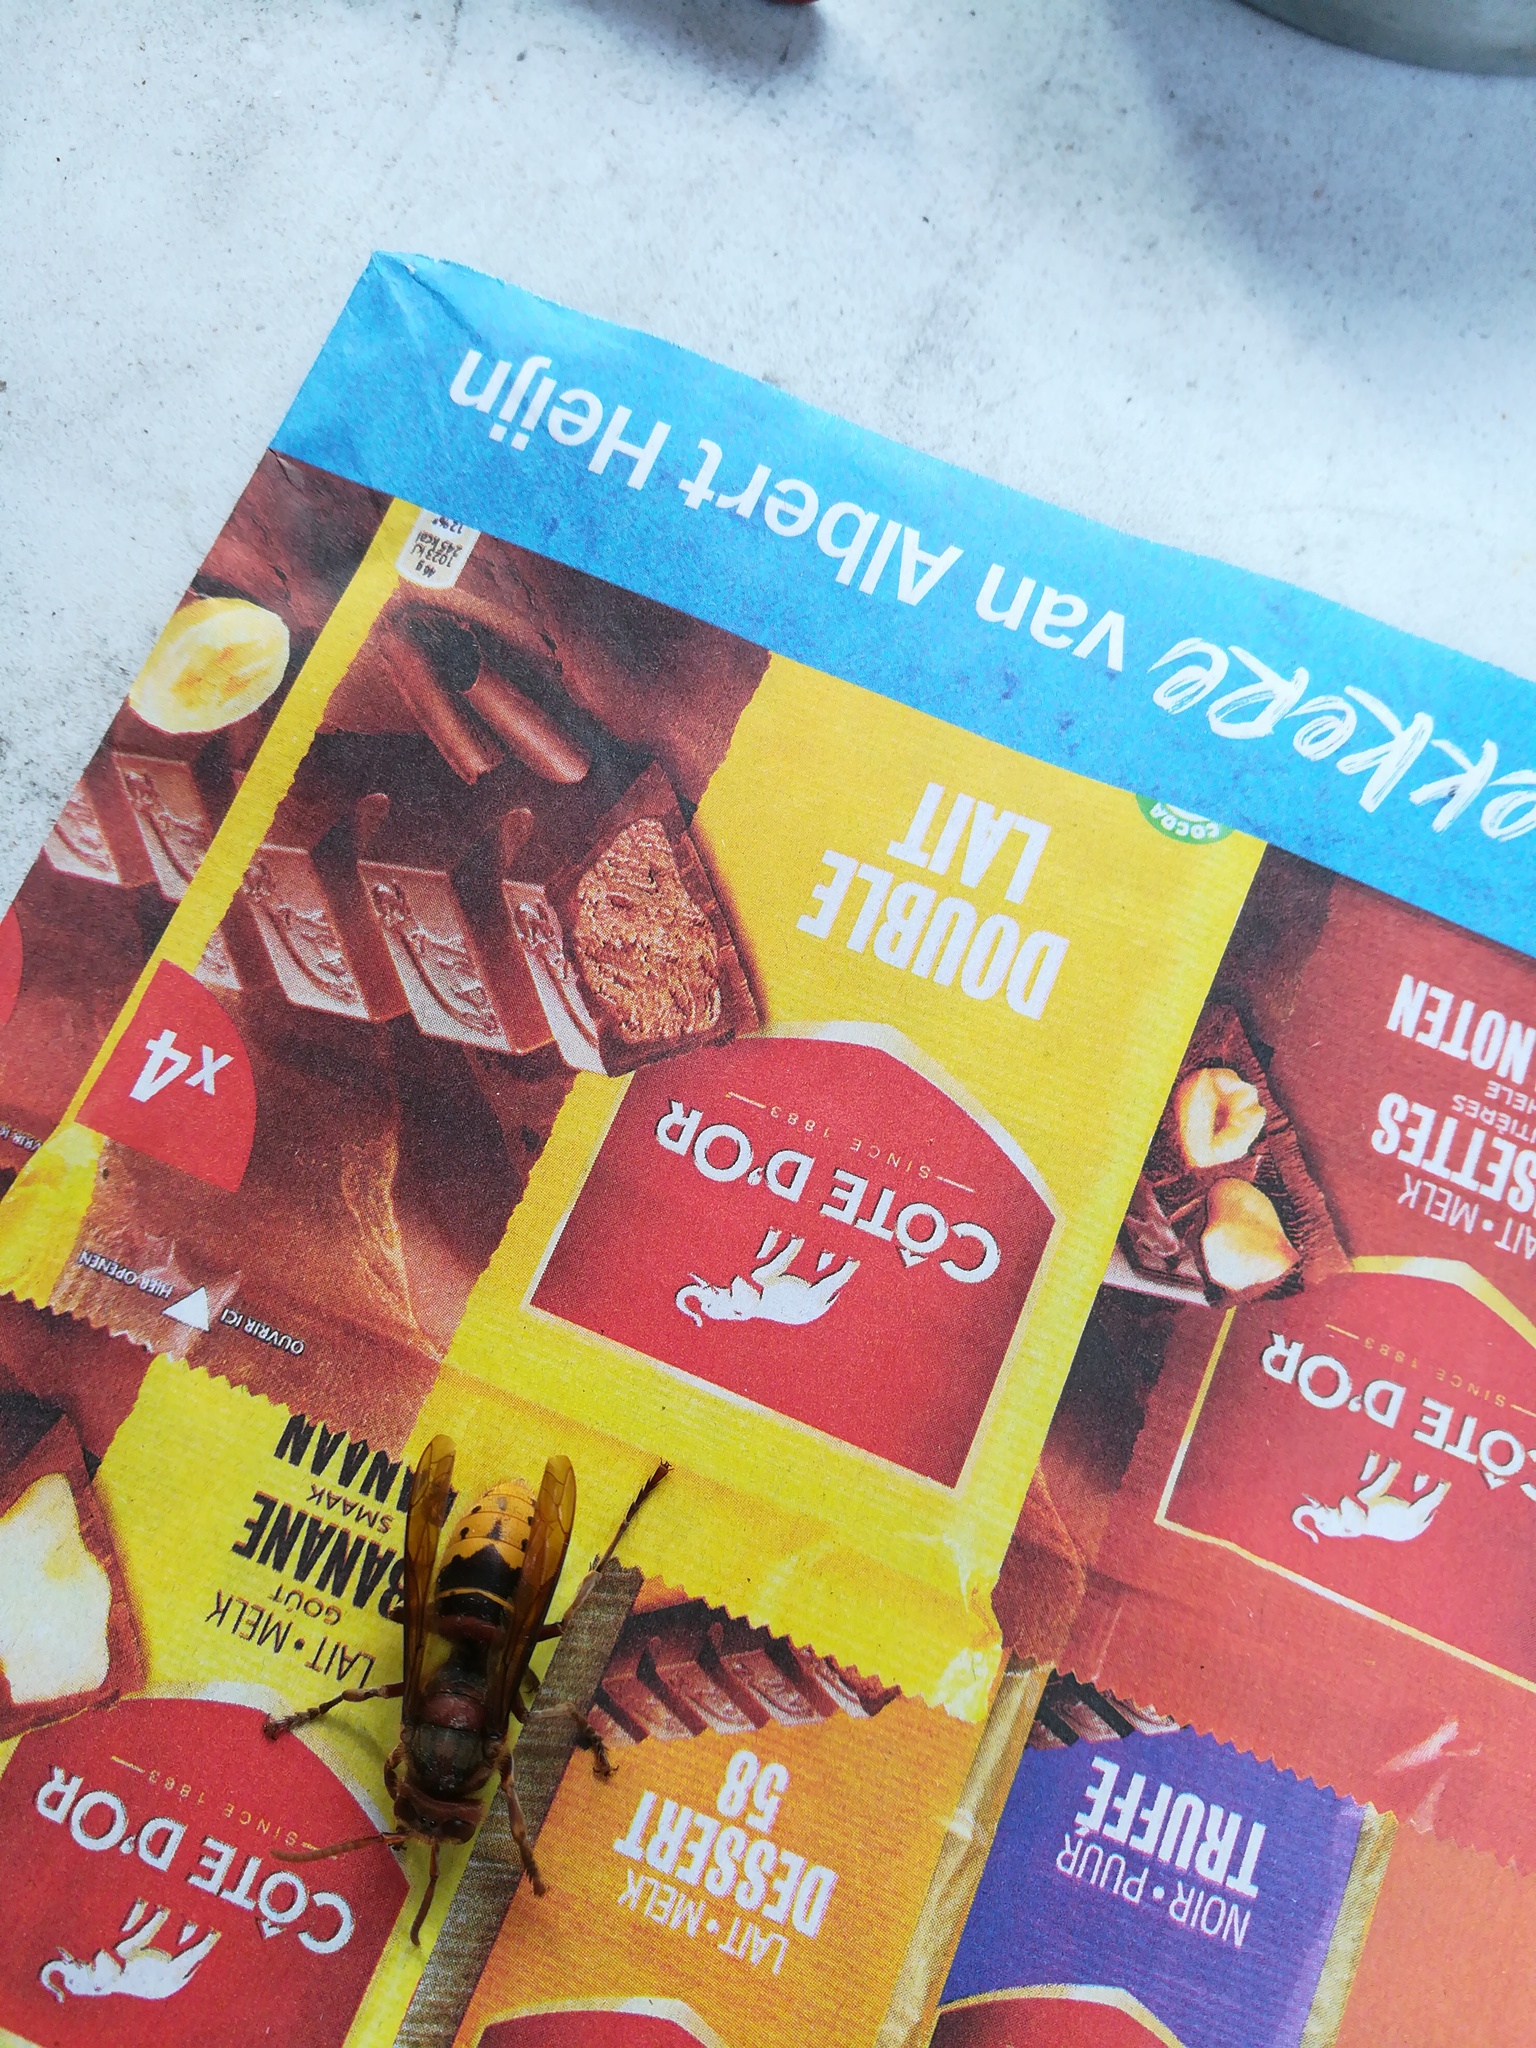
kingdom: Animalia
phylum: Arthropoda
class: Insecta
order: Hymenoptera
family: Vespidae
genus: Vespa
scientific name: Vespa crabro
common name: Hornet
